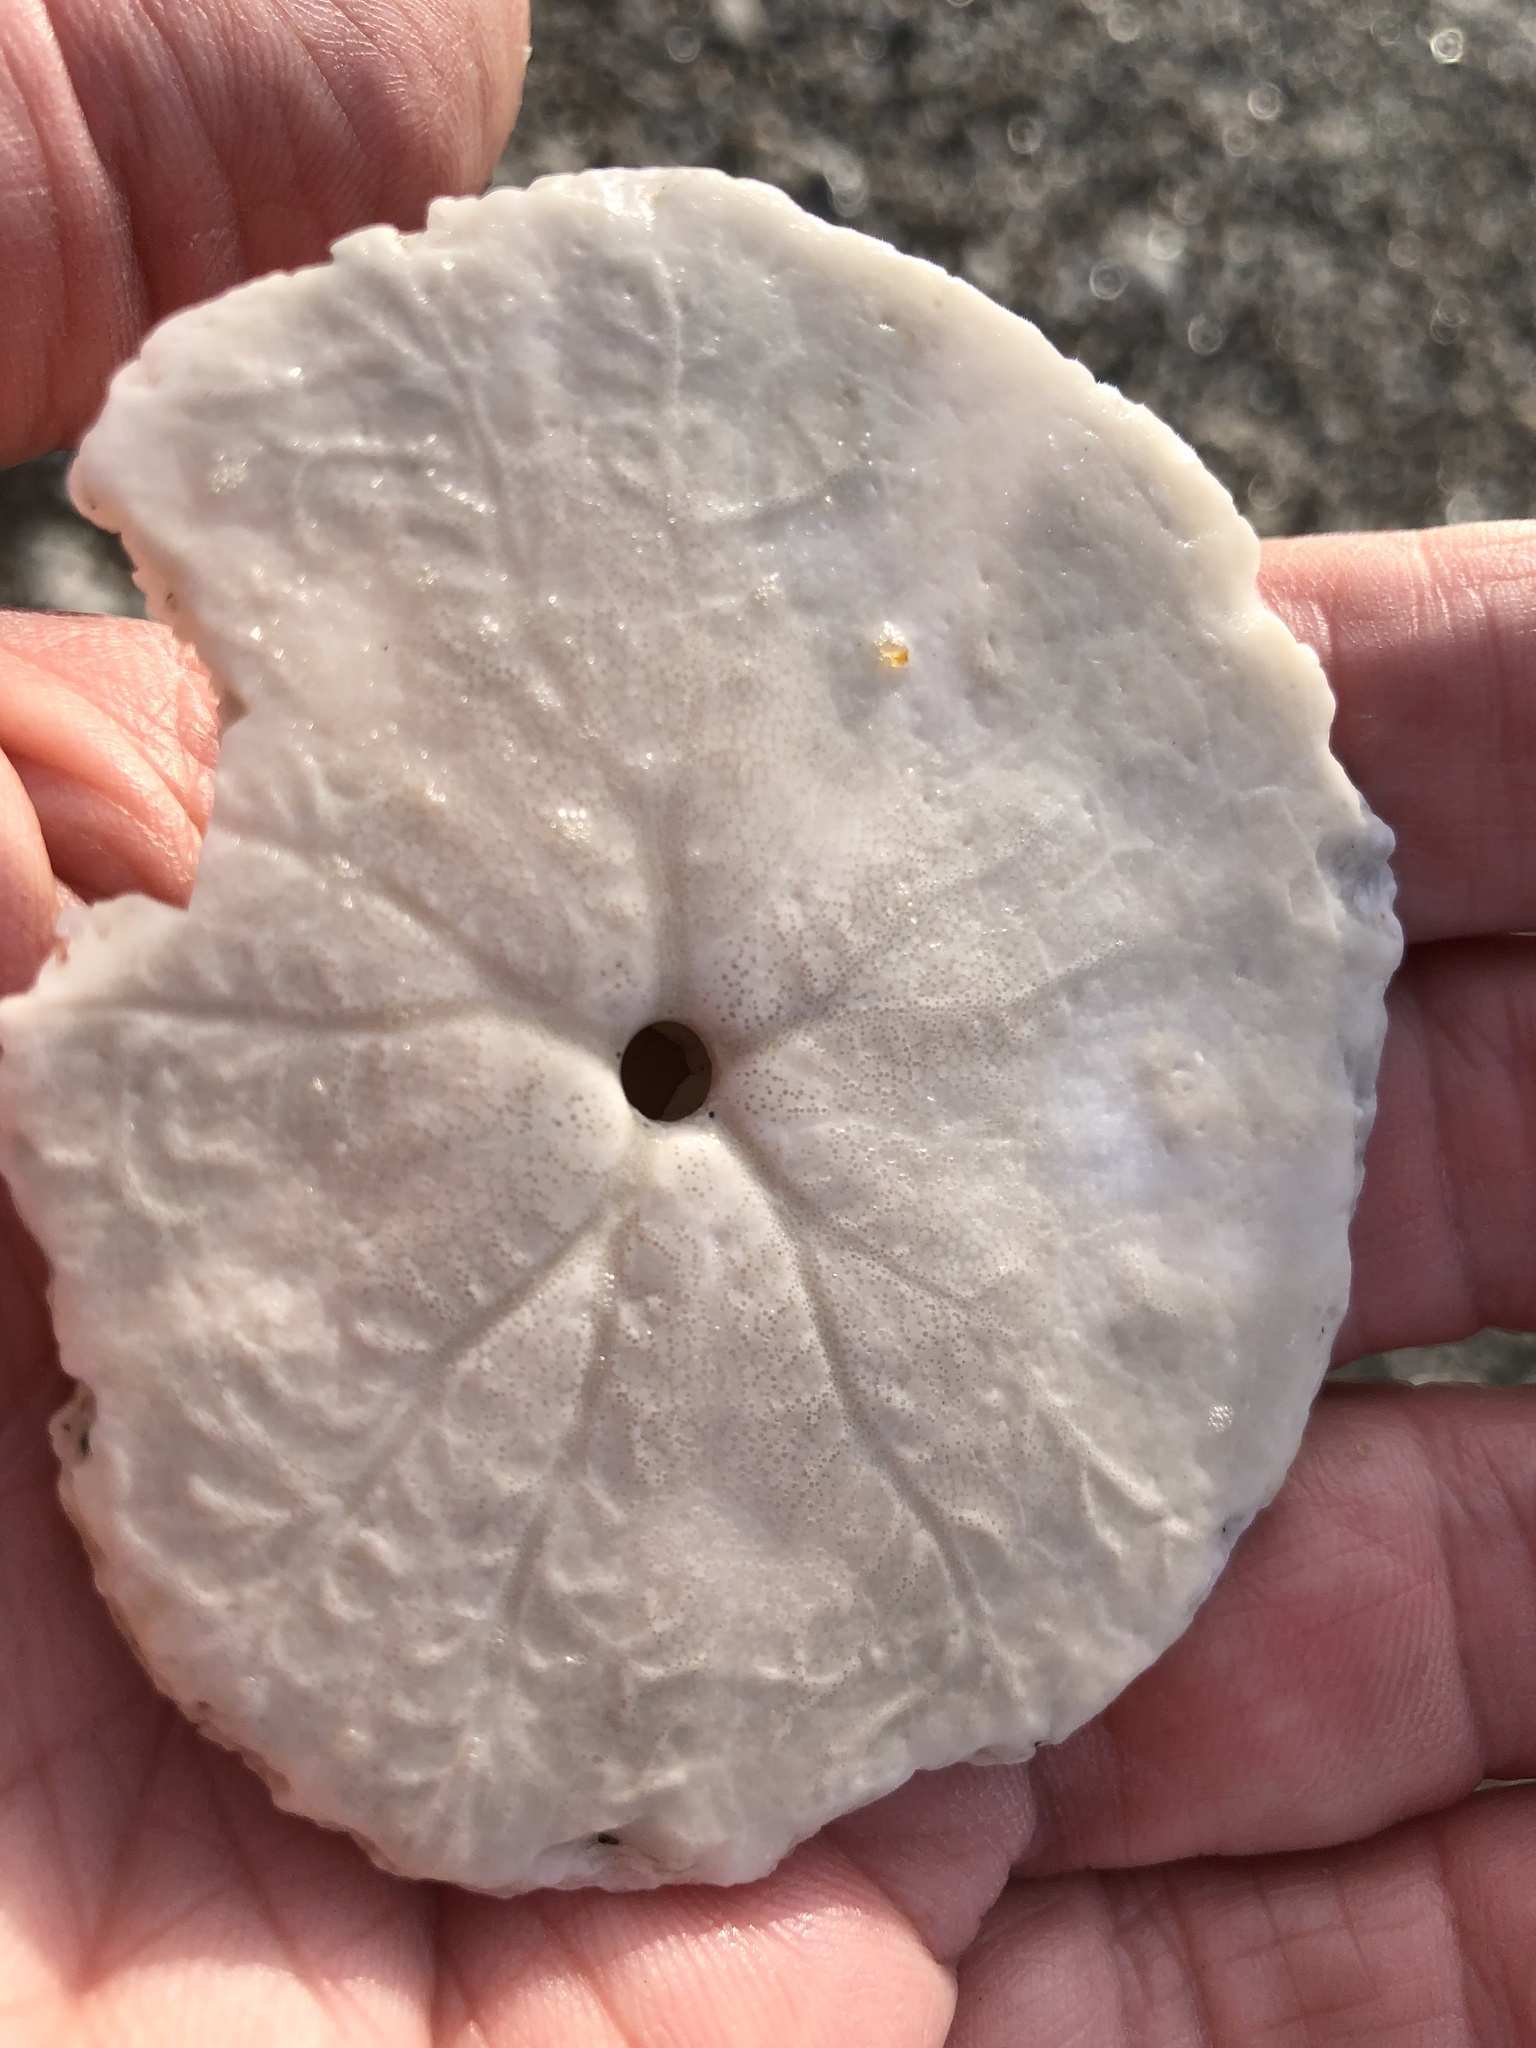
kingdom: Animalia
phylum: Echinodermata
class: Echinoidea
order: Echinolampadacea
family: Dendrasteridae
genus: Dendraster
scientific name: Dendraster excentricus
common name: Eccentric sand dollar sea urchin
